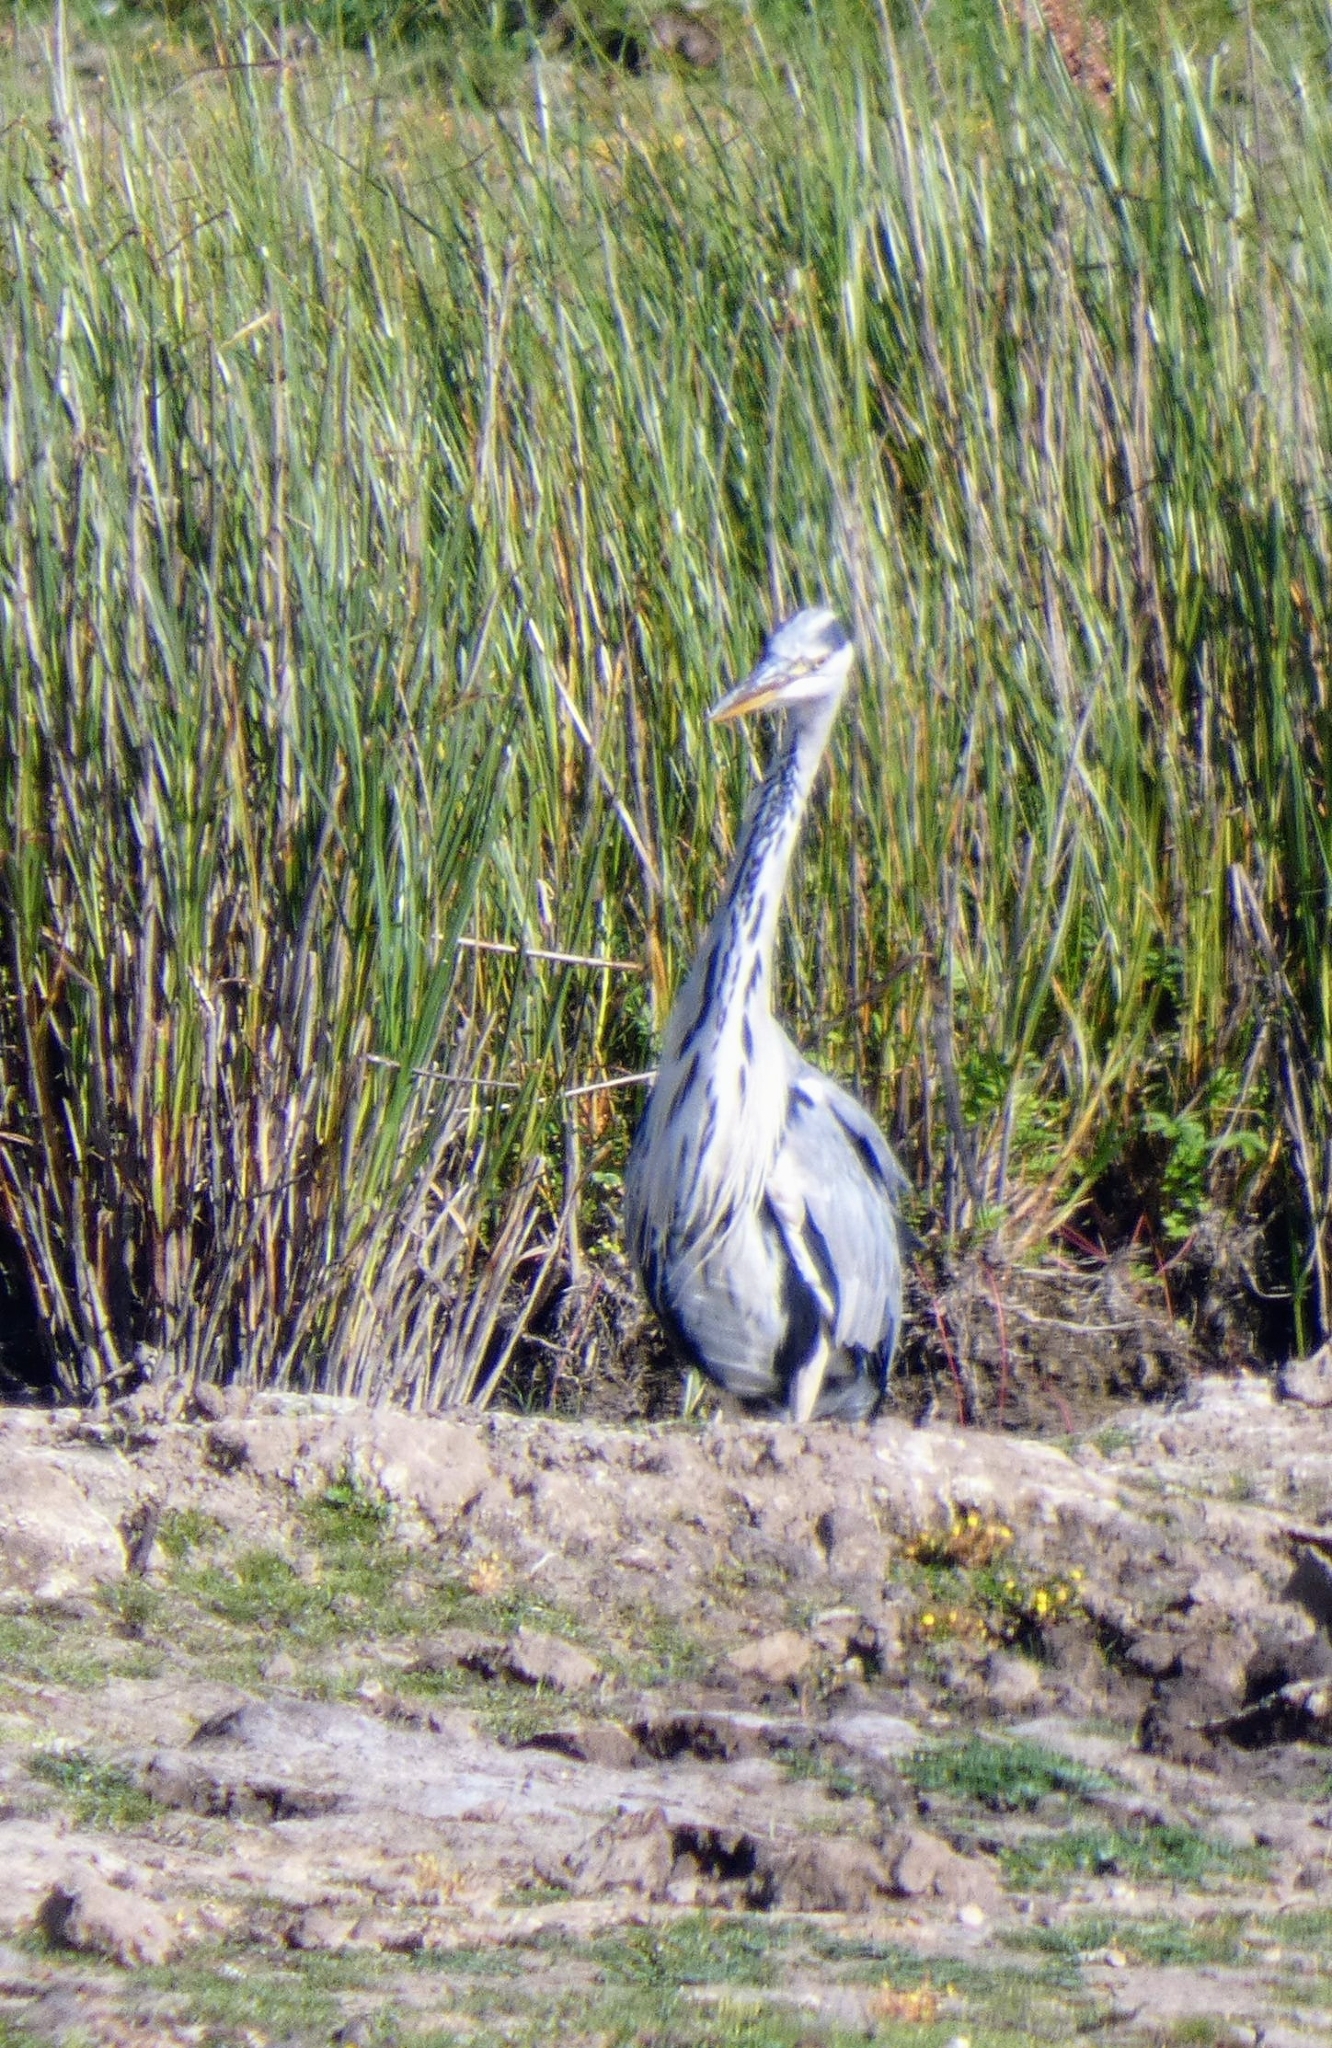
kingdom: Animalia
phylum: Chordata
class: Aves
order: Pelecaniformes
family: Ardeidae
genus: Ardea
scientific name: Ardea cinerea
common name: Grey heron
